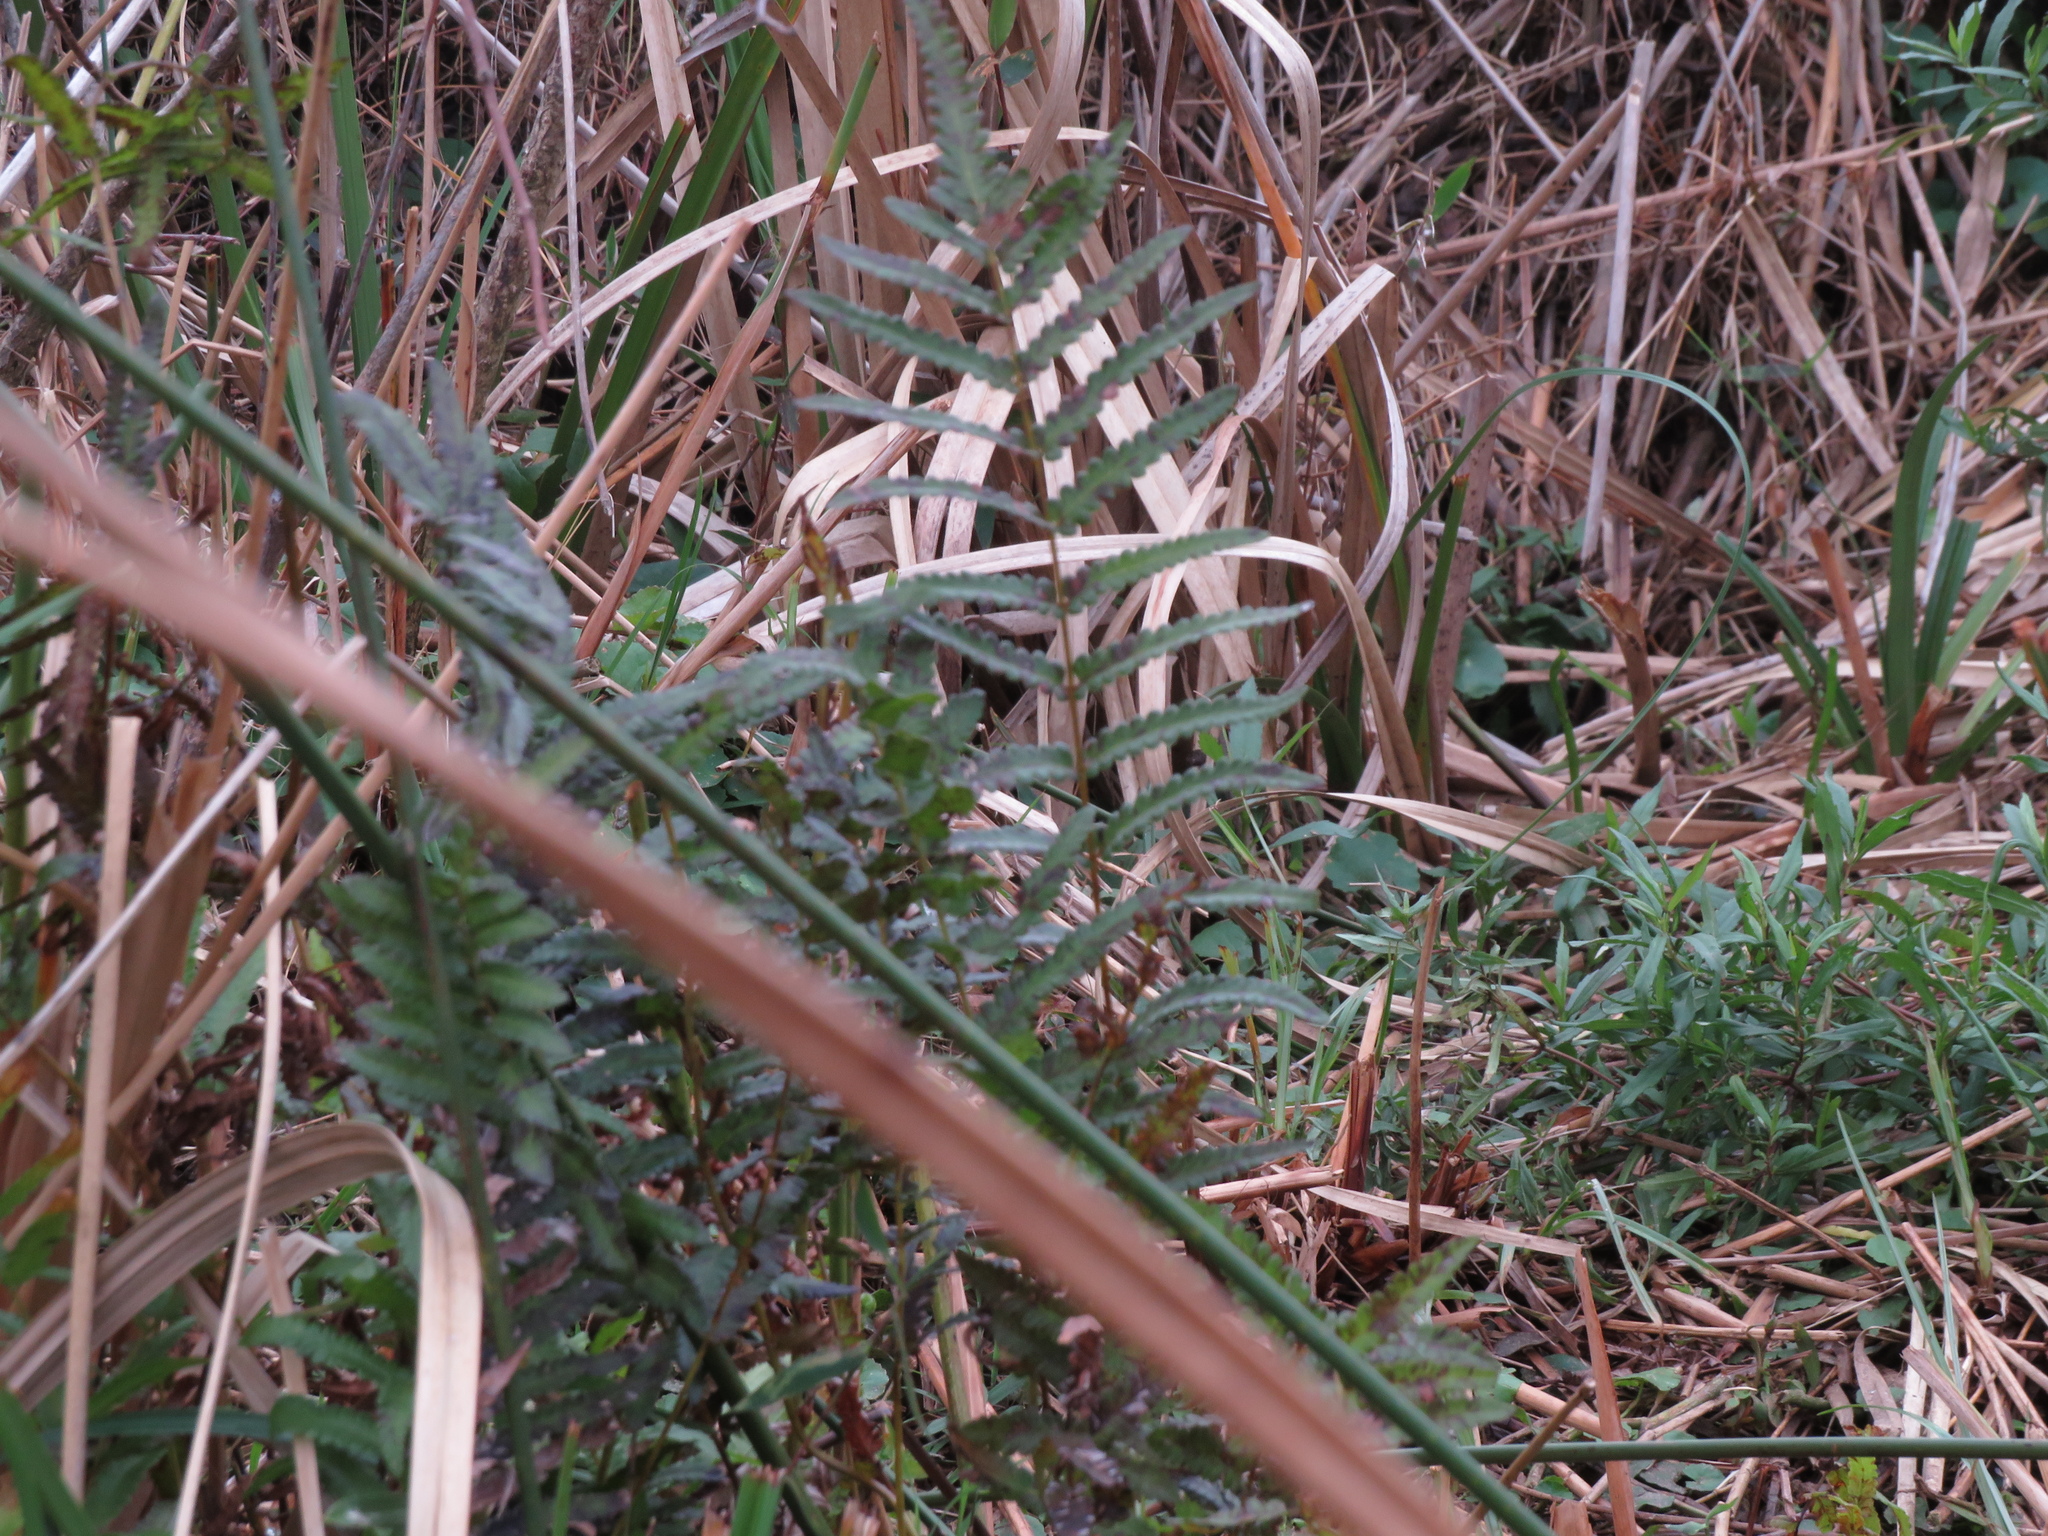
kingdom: Plantae
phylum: Tracheophyta
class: Polypodiopsida
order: Polypodiales
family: Thelypteridaceae
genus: Cyclosorus
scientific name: Cyclosorus interruptus
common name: Neke fern
